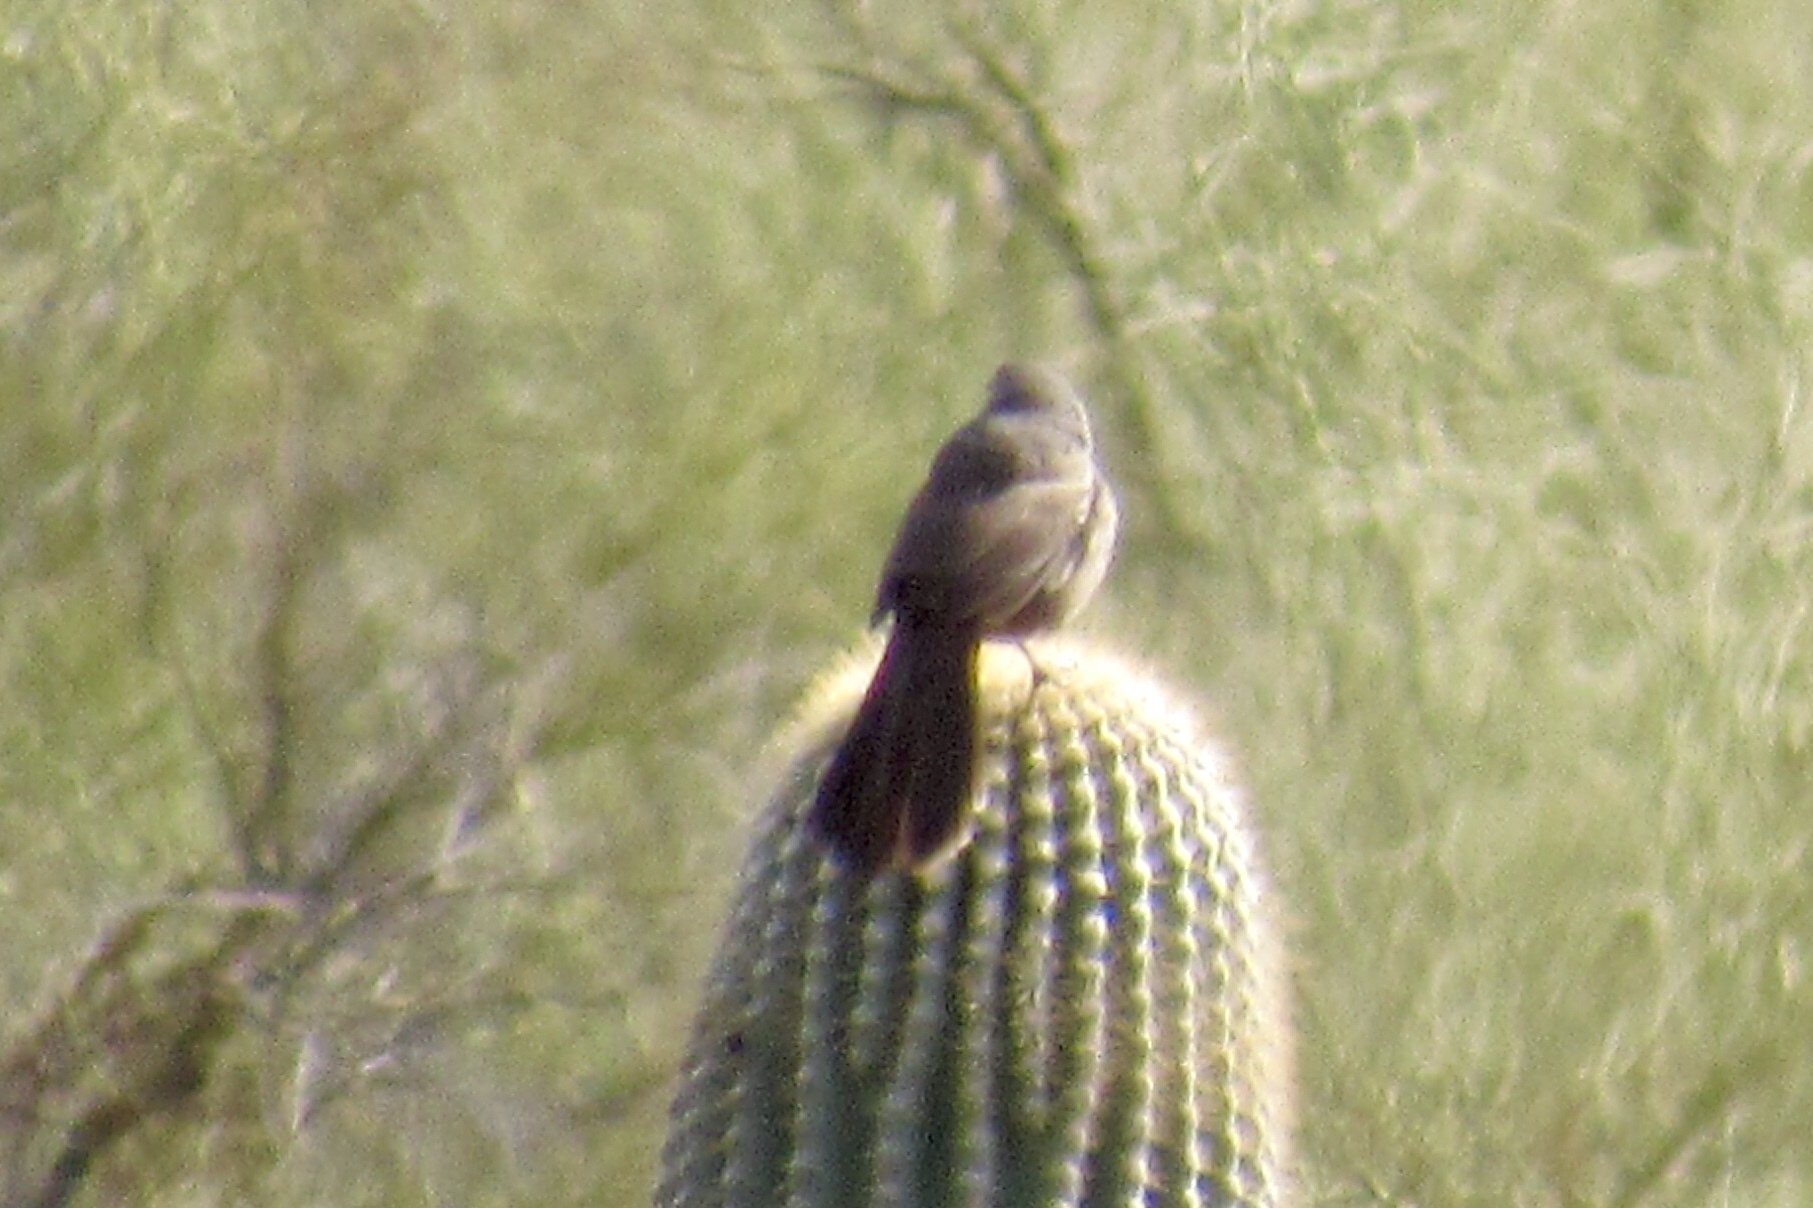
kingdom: Animalia
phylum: Chordata
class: Aves
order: Passeriformes
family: Mimidae
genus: Toxostoma
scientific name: Toxostoma curvirostre
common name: Curve-billed thrasher
